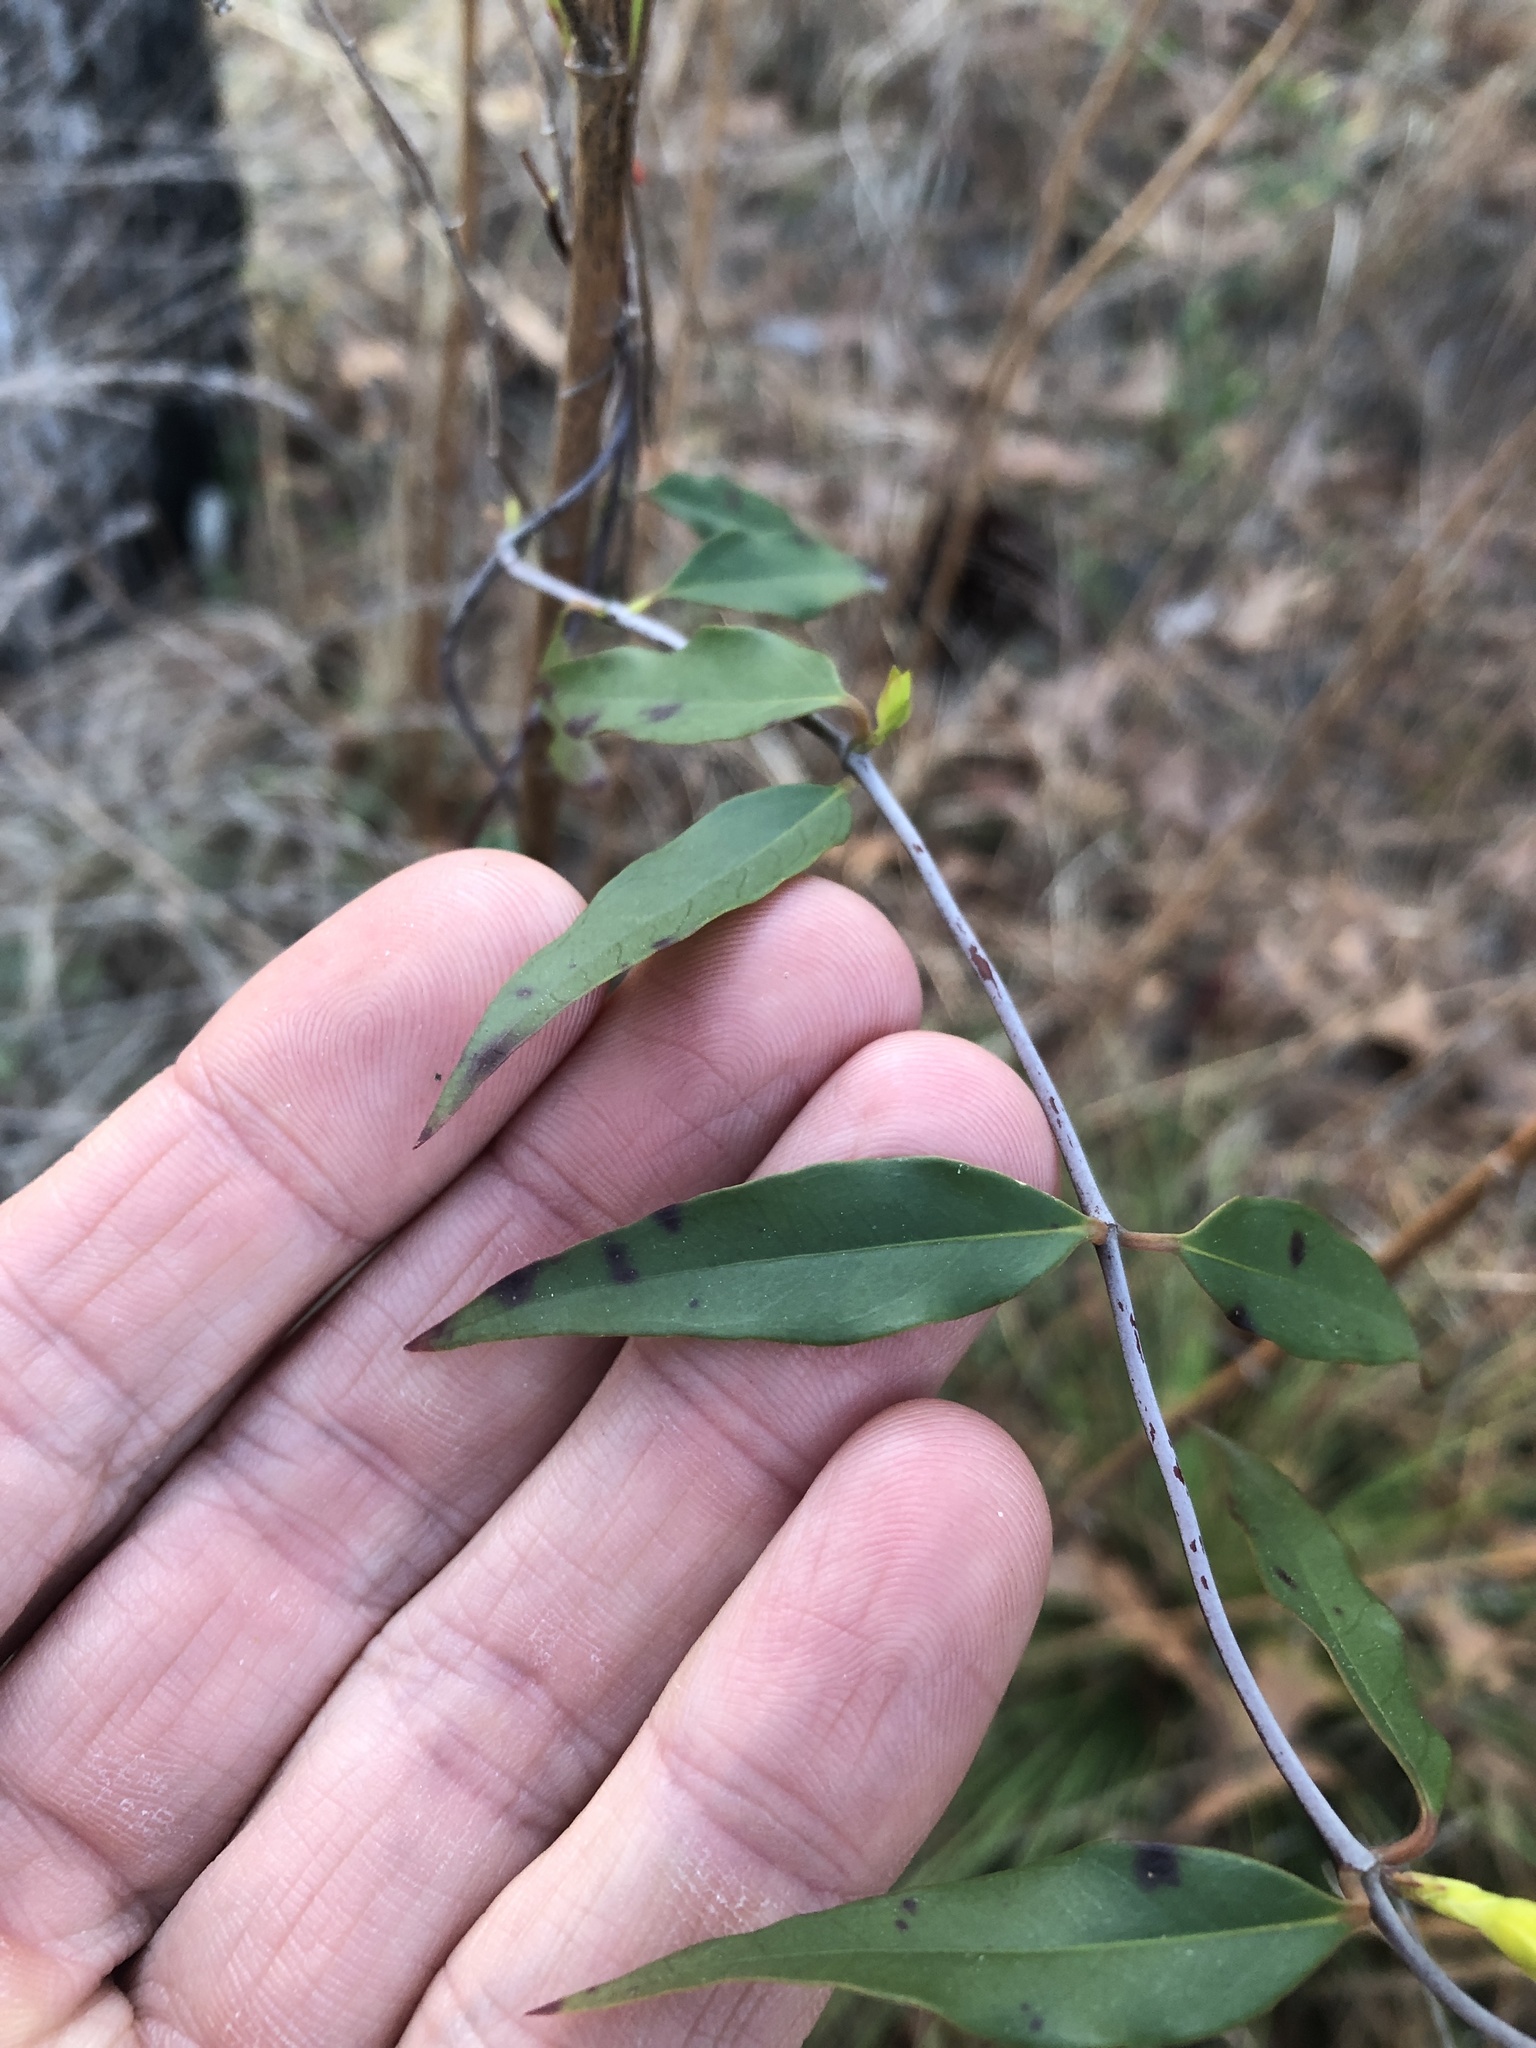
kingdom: Plantae
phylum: Tracheophyta
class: Magnoliopsida
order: Gentianales
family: Gelsemiaceae
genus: Gelsemium
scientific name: Gelsemium sempervirens
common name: Carolina-jasmine
